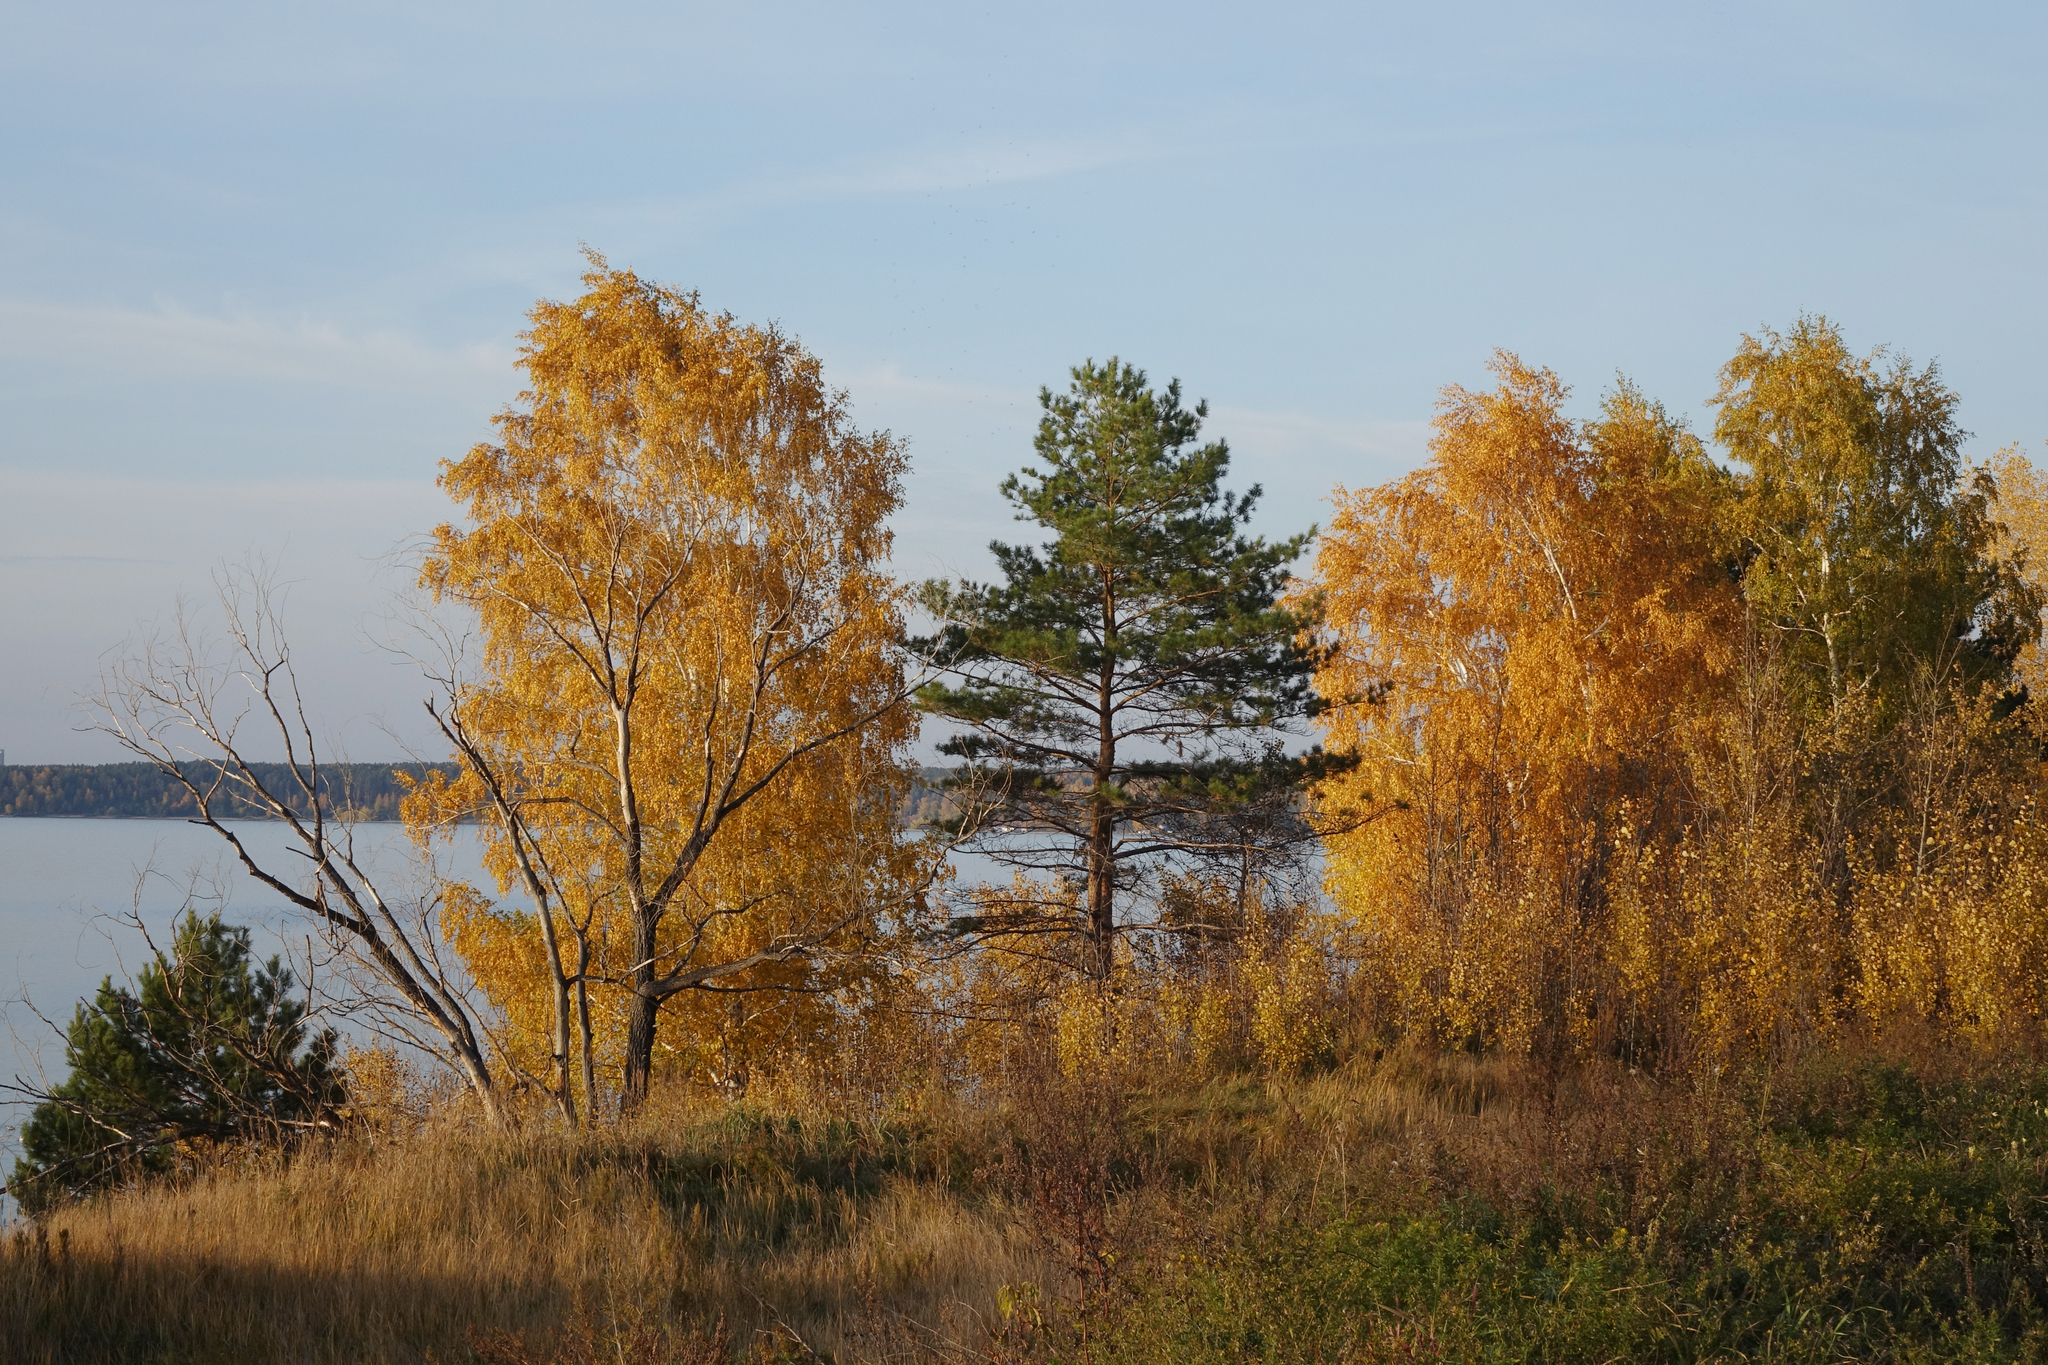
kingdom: Plantae
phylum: Tracheophyta
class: Pinopsida
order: Pinales
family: Pinaceae
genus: Pinus
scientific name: Pinus sylvestris
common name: Scots pine
